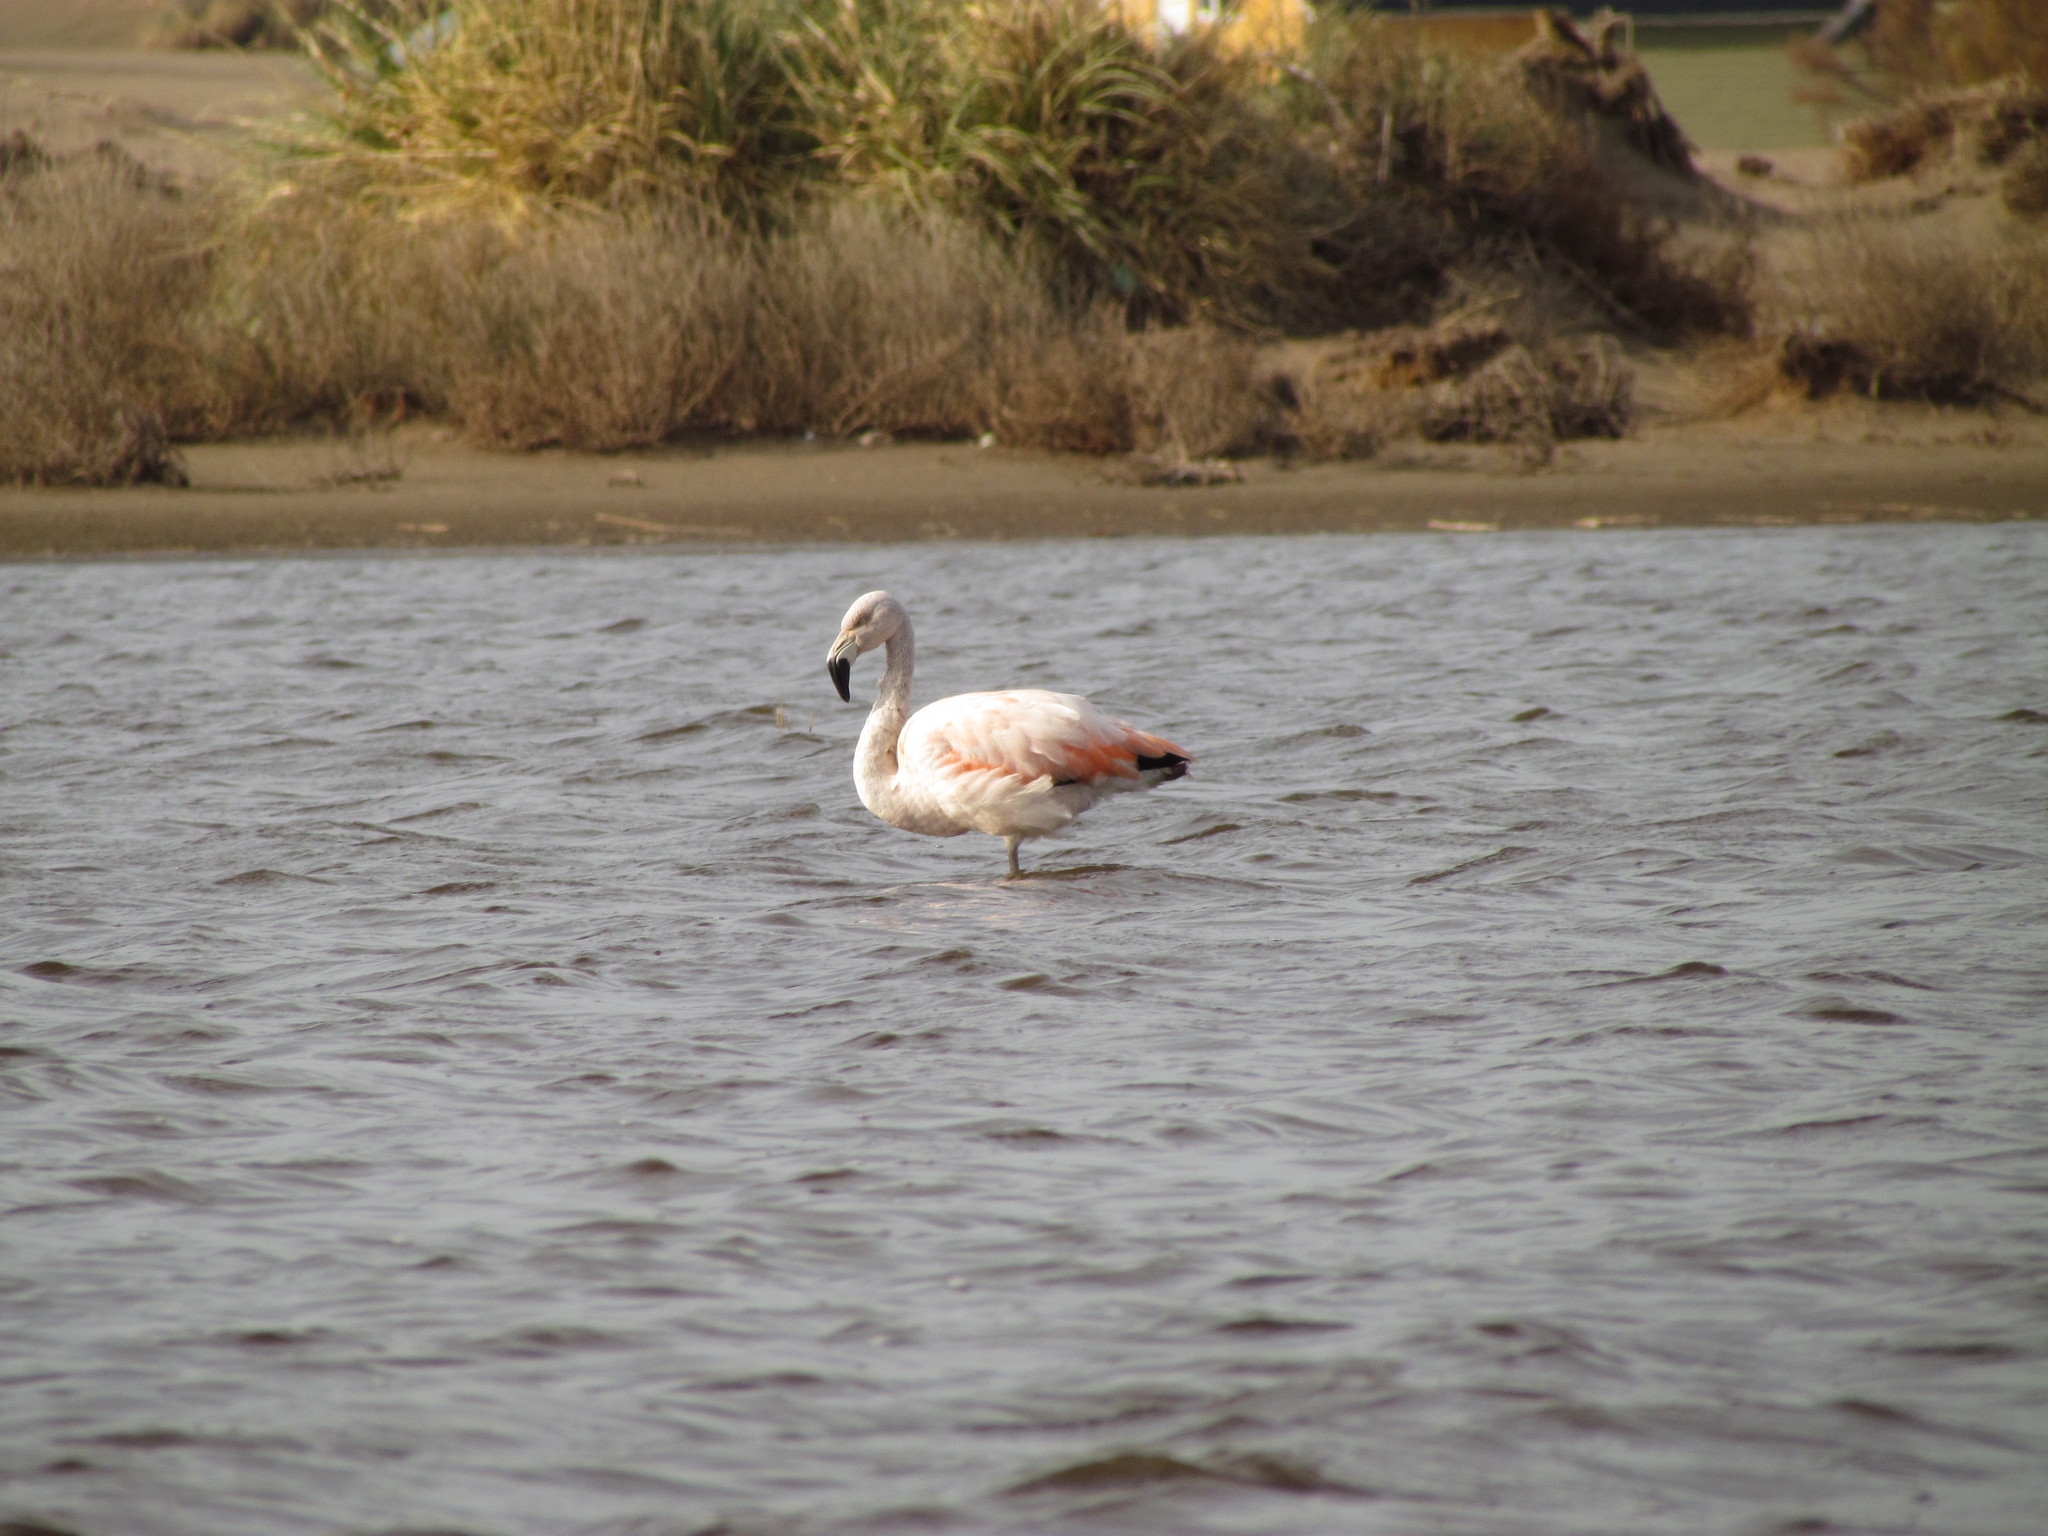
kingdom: Animalia
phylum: Chordata
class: Aves
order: Phoenicopteriformes
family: Phoenicopteridae
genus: Phoenicopterus
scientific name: Phoenicopterus chilensis
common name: Chilean flamingo
